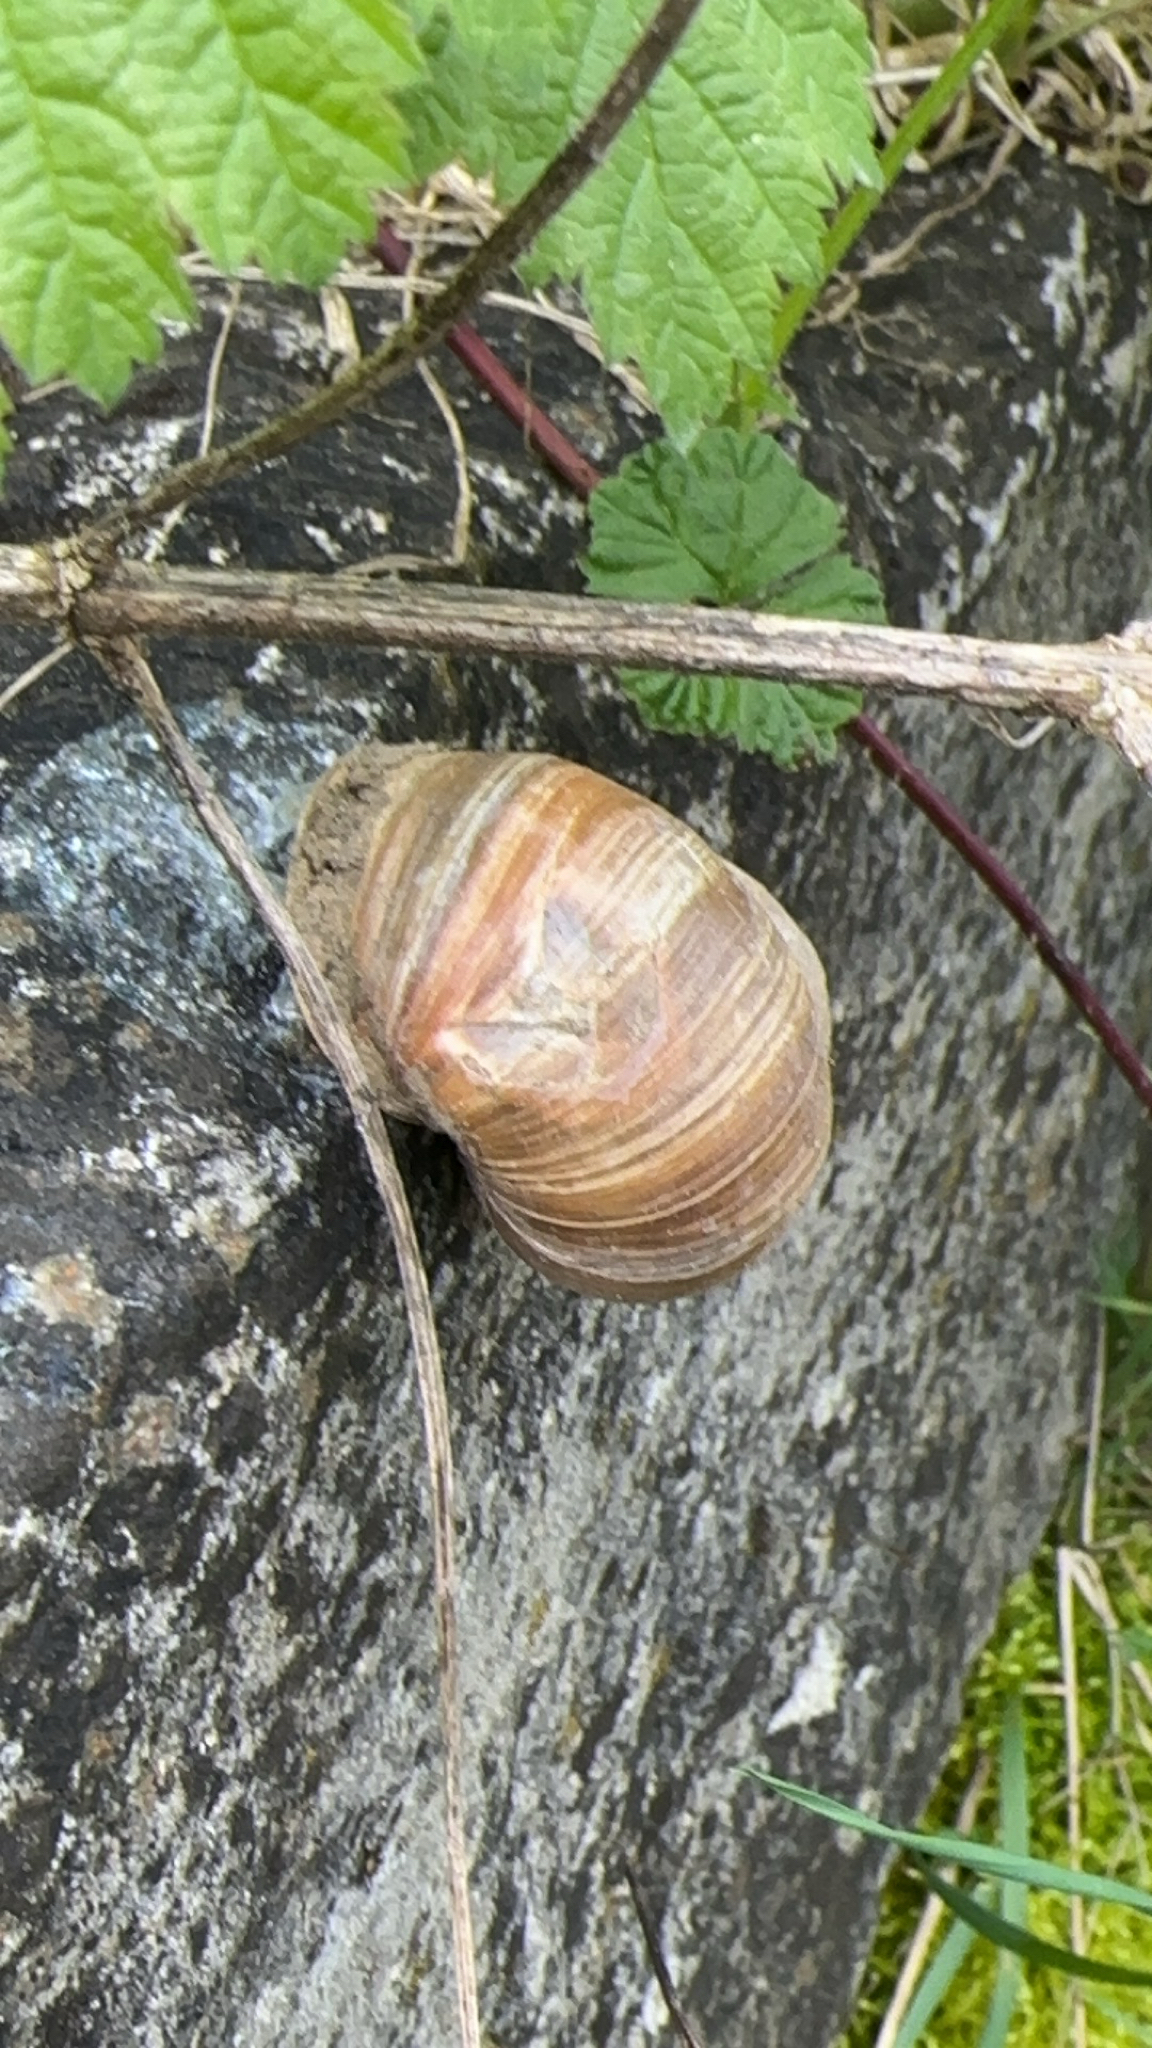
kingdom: Animalia
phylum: Mollusca
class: Gastropoda
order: Stylommatophora
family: Helicidae
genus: Helix
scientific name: Helix pomatia
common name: Roman snail
